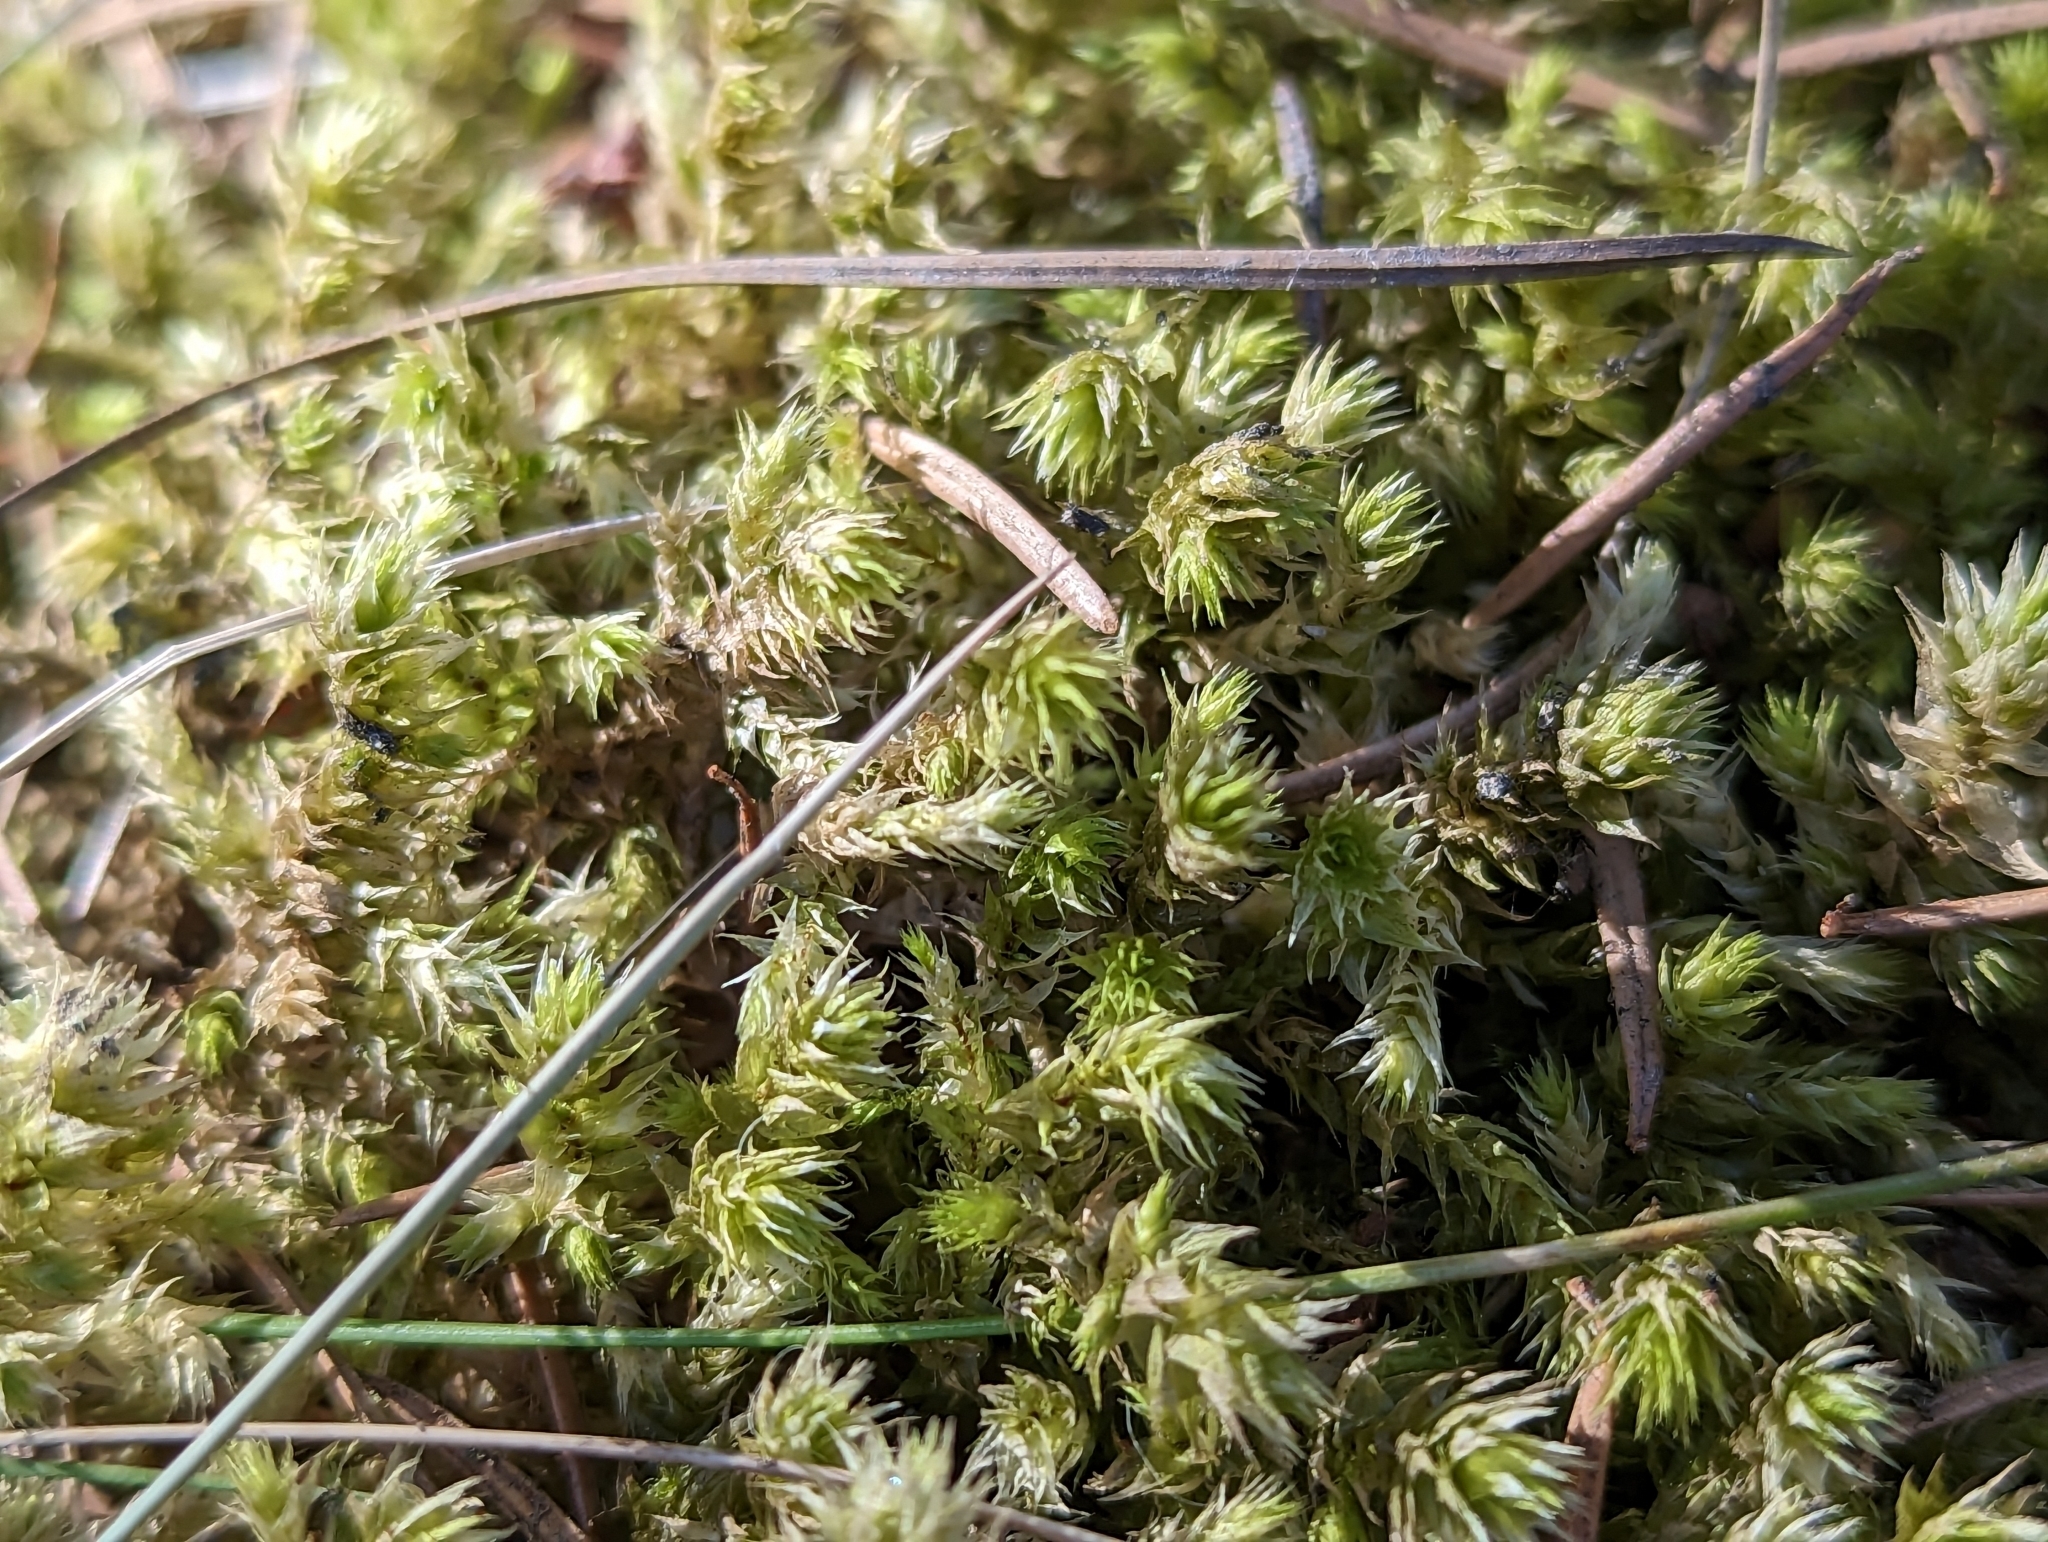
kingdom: Plantae
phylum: Bryophyta
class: Bryopsida
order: Hypnales
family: Hylocomiaceae
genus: Hylocomiadelphus
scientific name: Hylocomiadelphus triquetrus
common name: Rough goose neck moss
